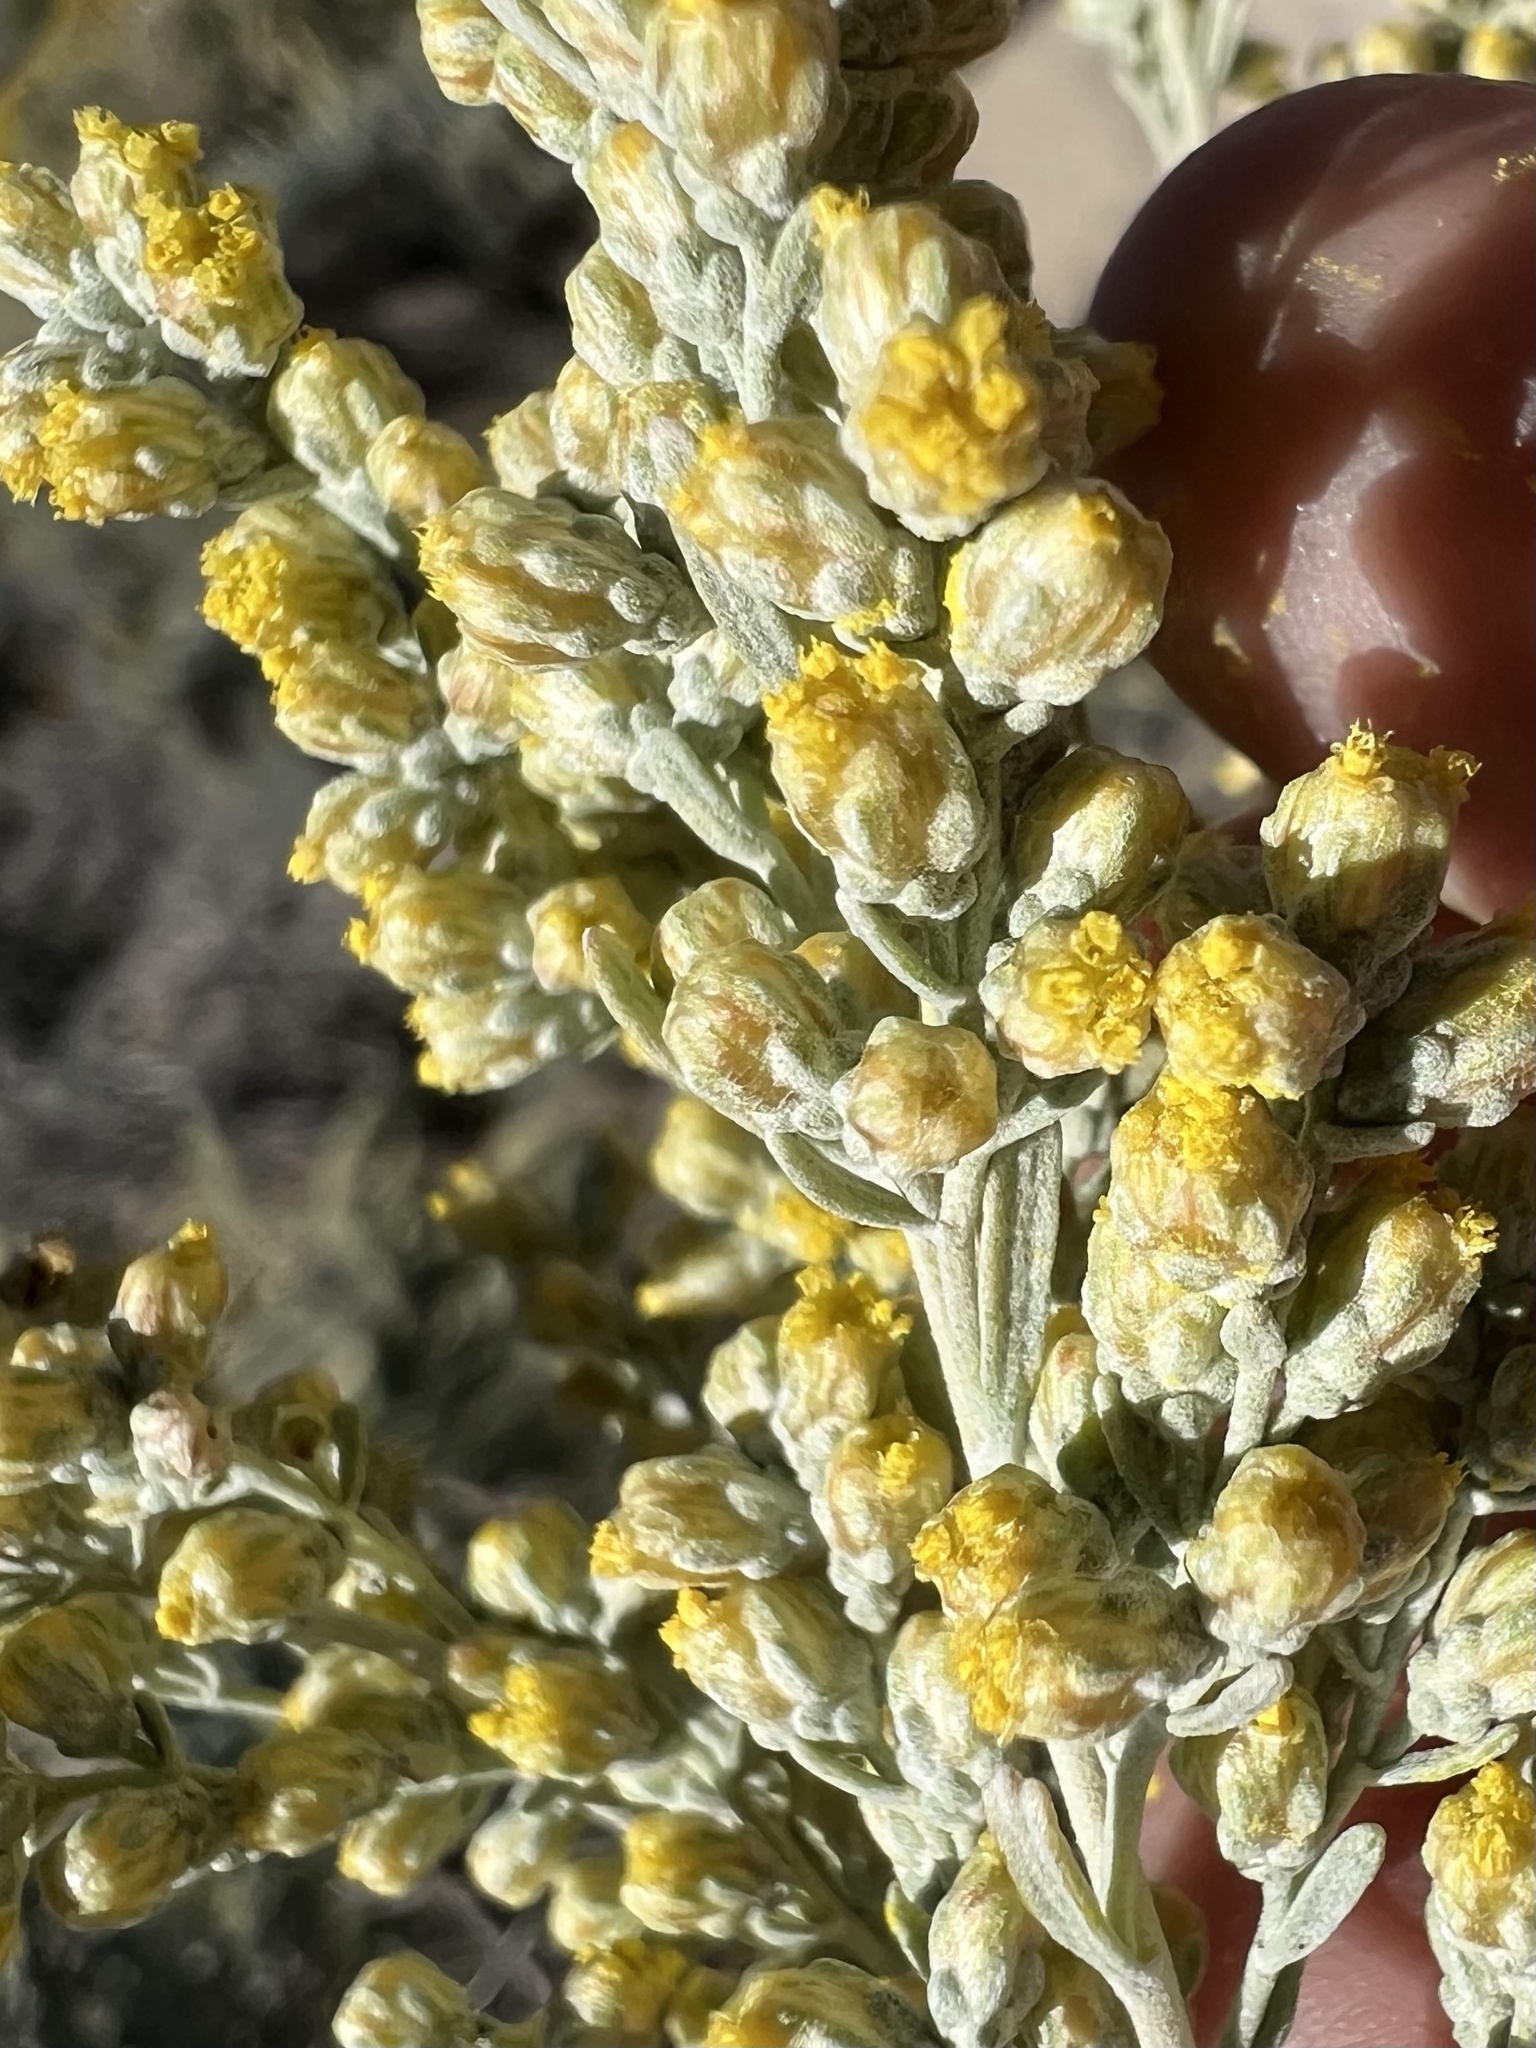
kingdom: Plantae
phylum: Tracheophyta
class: Magnoliopsida
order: Asterales
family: Asteraceae
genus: Artemisia
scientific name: Artemisia tridentata
